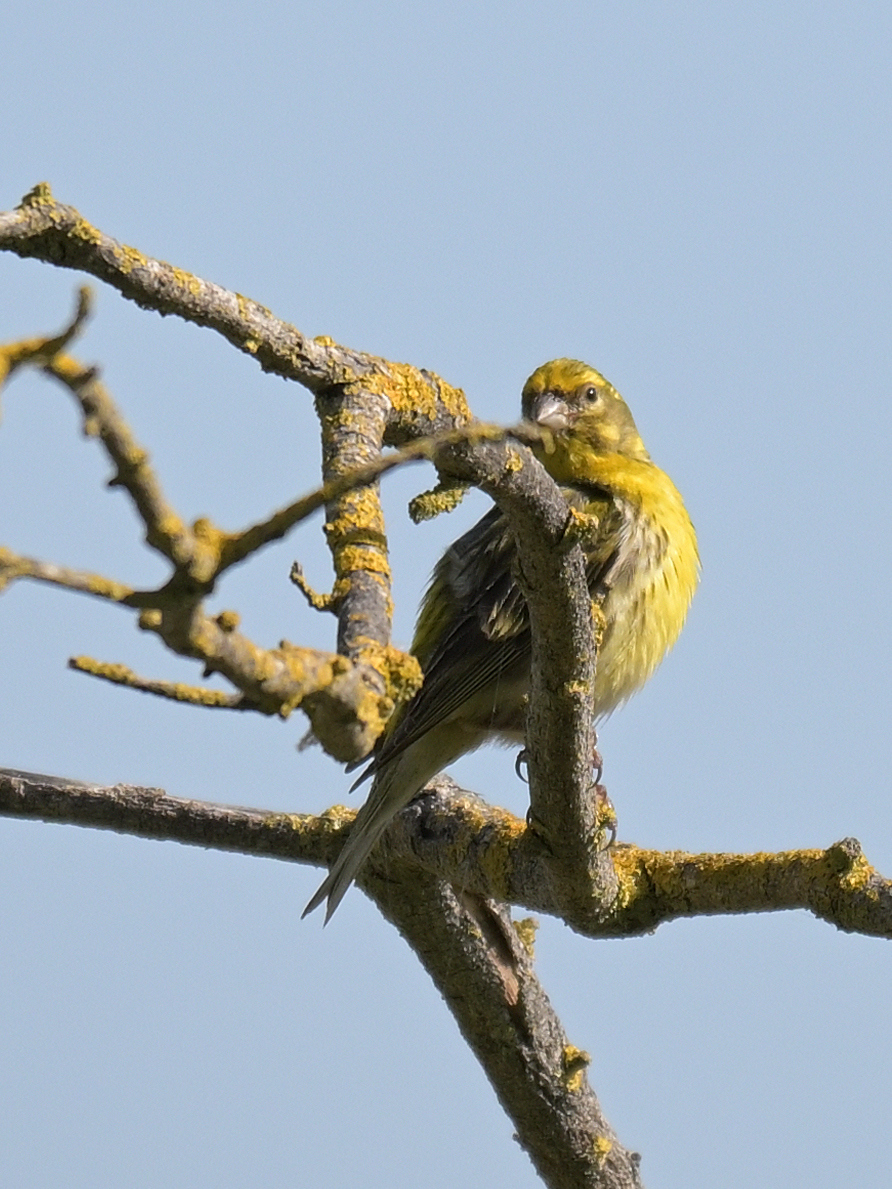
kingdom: Animalia
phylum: Chordata
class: Aves
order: Passeriformes
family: Fringillidae
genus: Serinus
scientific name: Serinus serinus
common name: European serin
